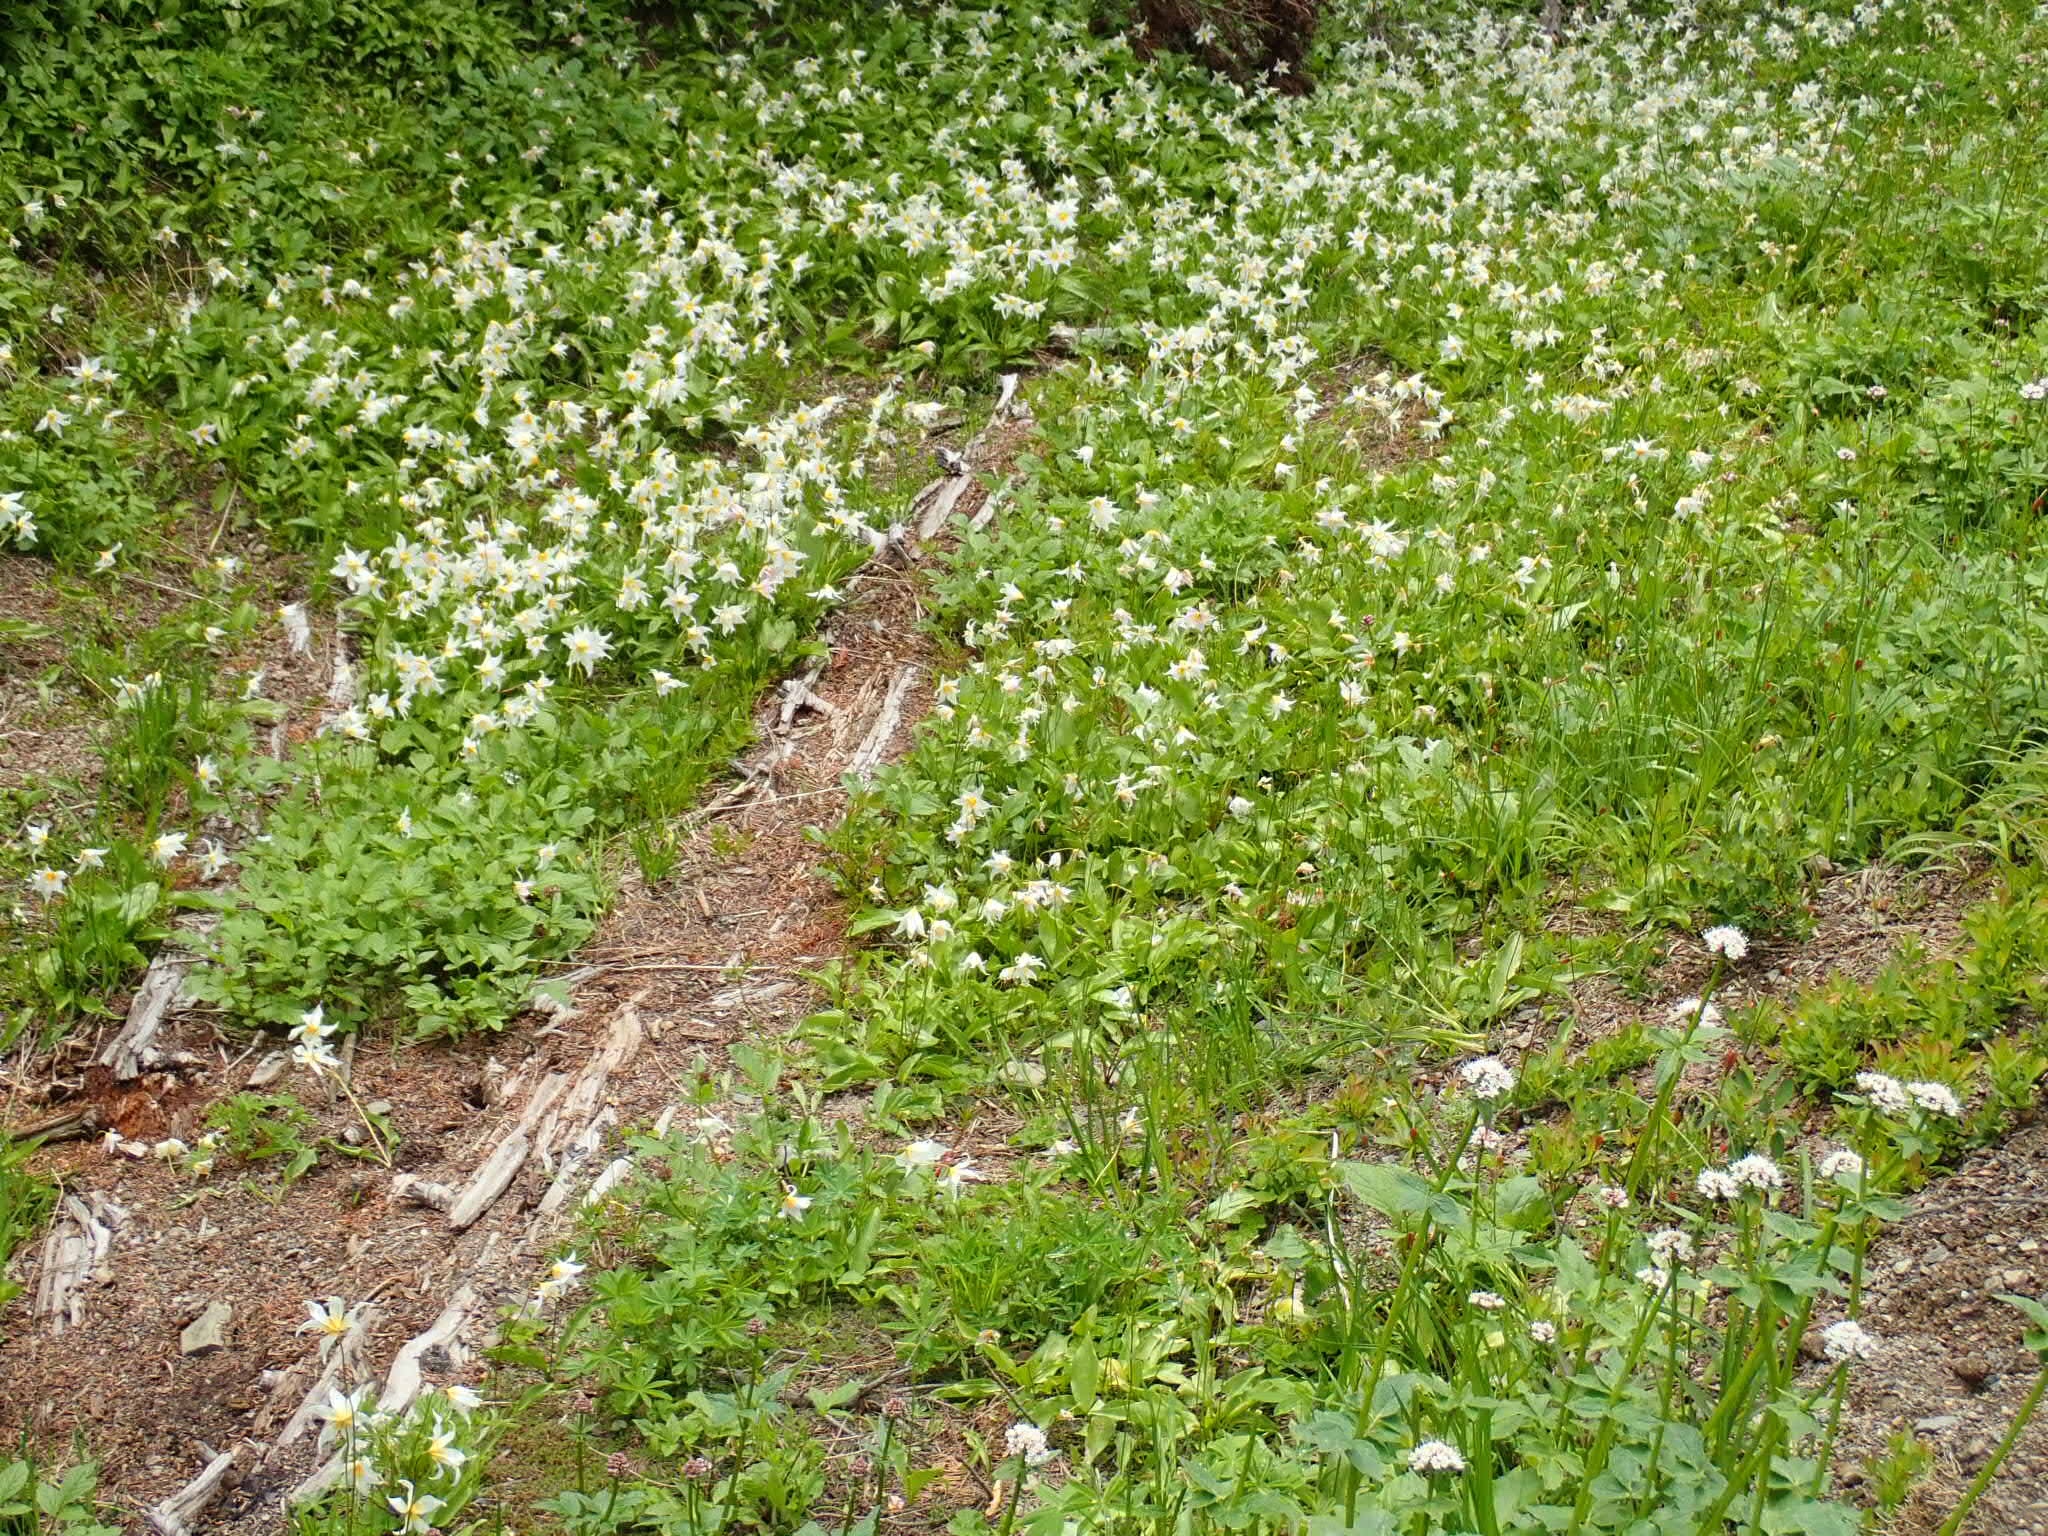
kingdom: Plantae
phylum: Tracheophyta
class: Liliopsida
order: Liliales
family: Liliaceae
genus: Erythronium
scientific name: Erythronium montanum
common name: Avalanche lily
